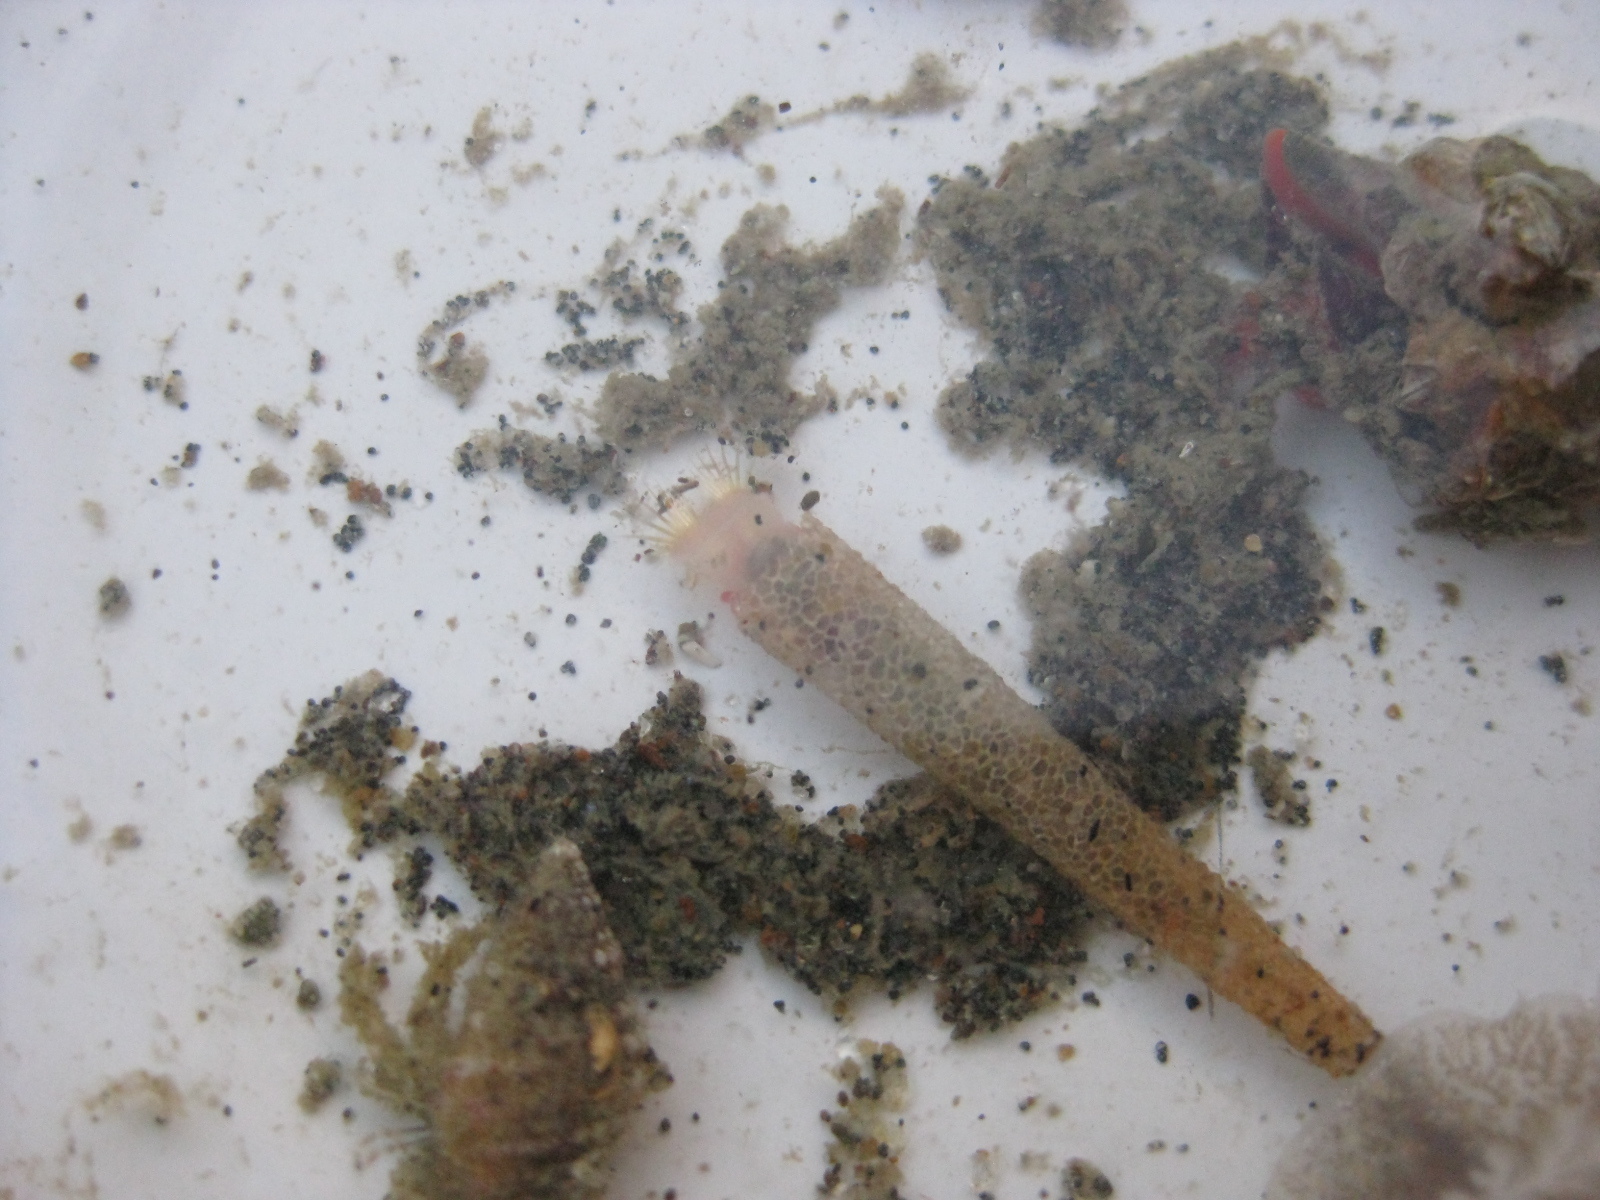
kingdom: Animalia
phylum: Annelida
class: Polychaeta
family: Pectinariidae
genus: Lagis
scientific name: Lagis australis
